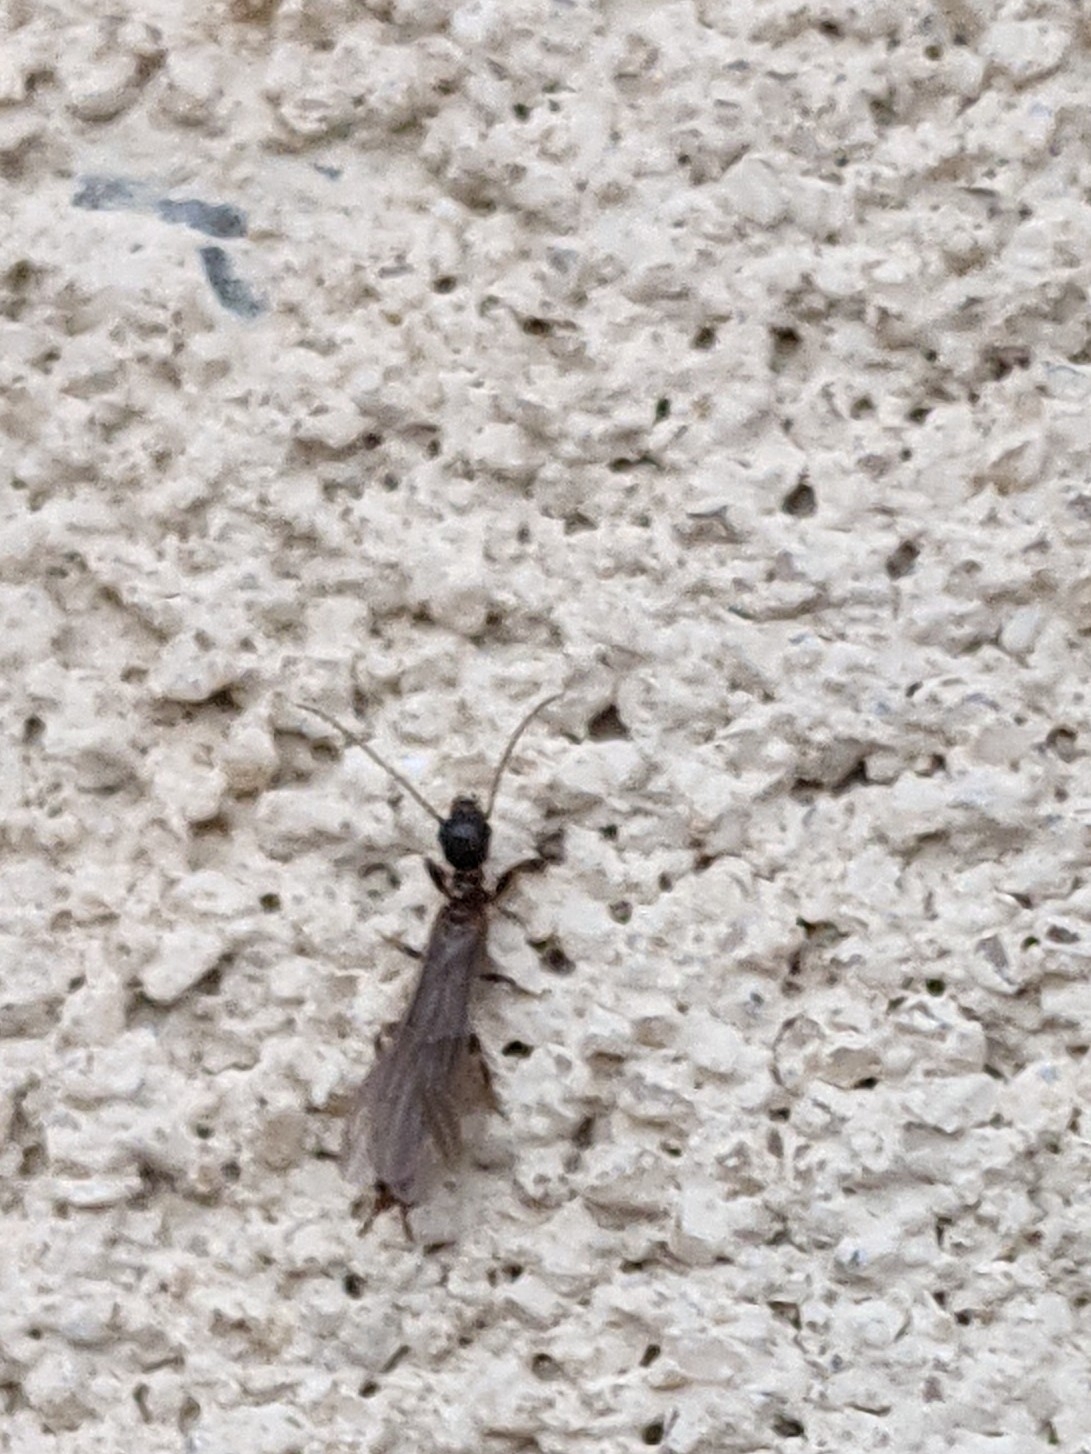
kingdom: Animalia
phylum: Arthropoda
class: Insecta
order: Embioptera
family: Oligotomidae
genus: Oligotoma
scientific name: Oligotoma nigra
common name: Black webspinner
